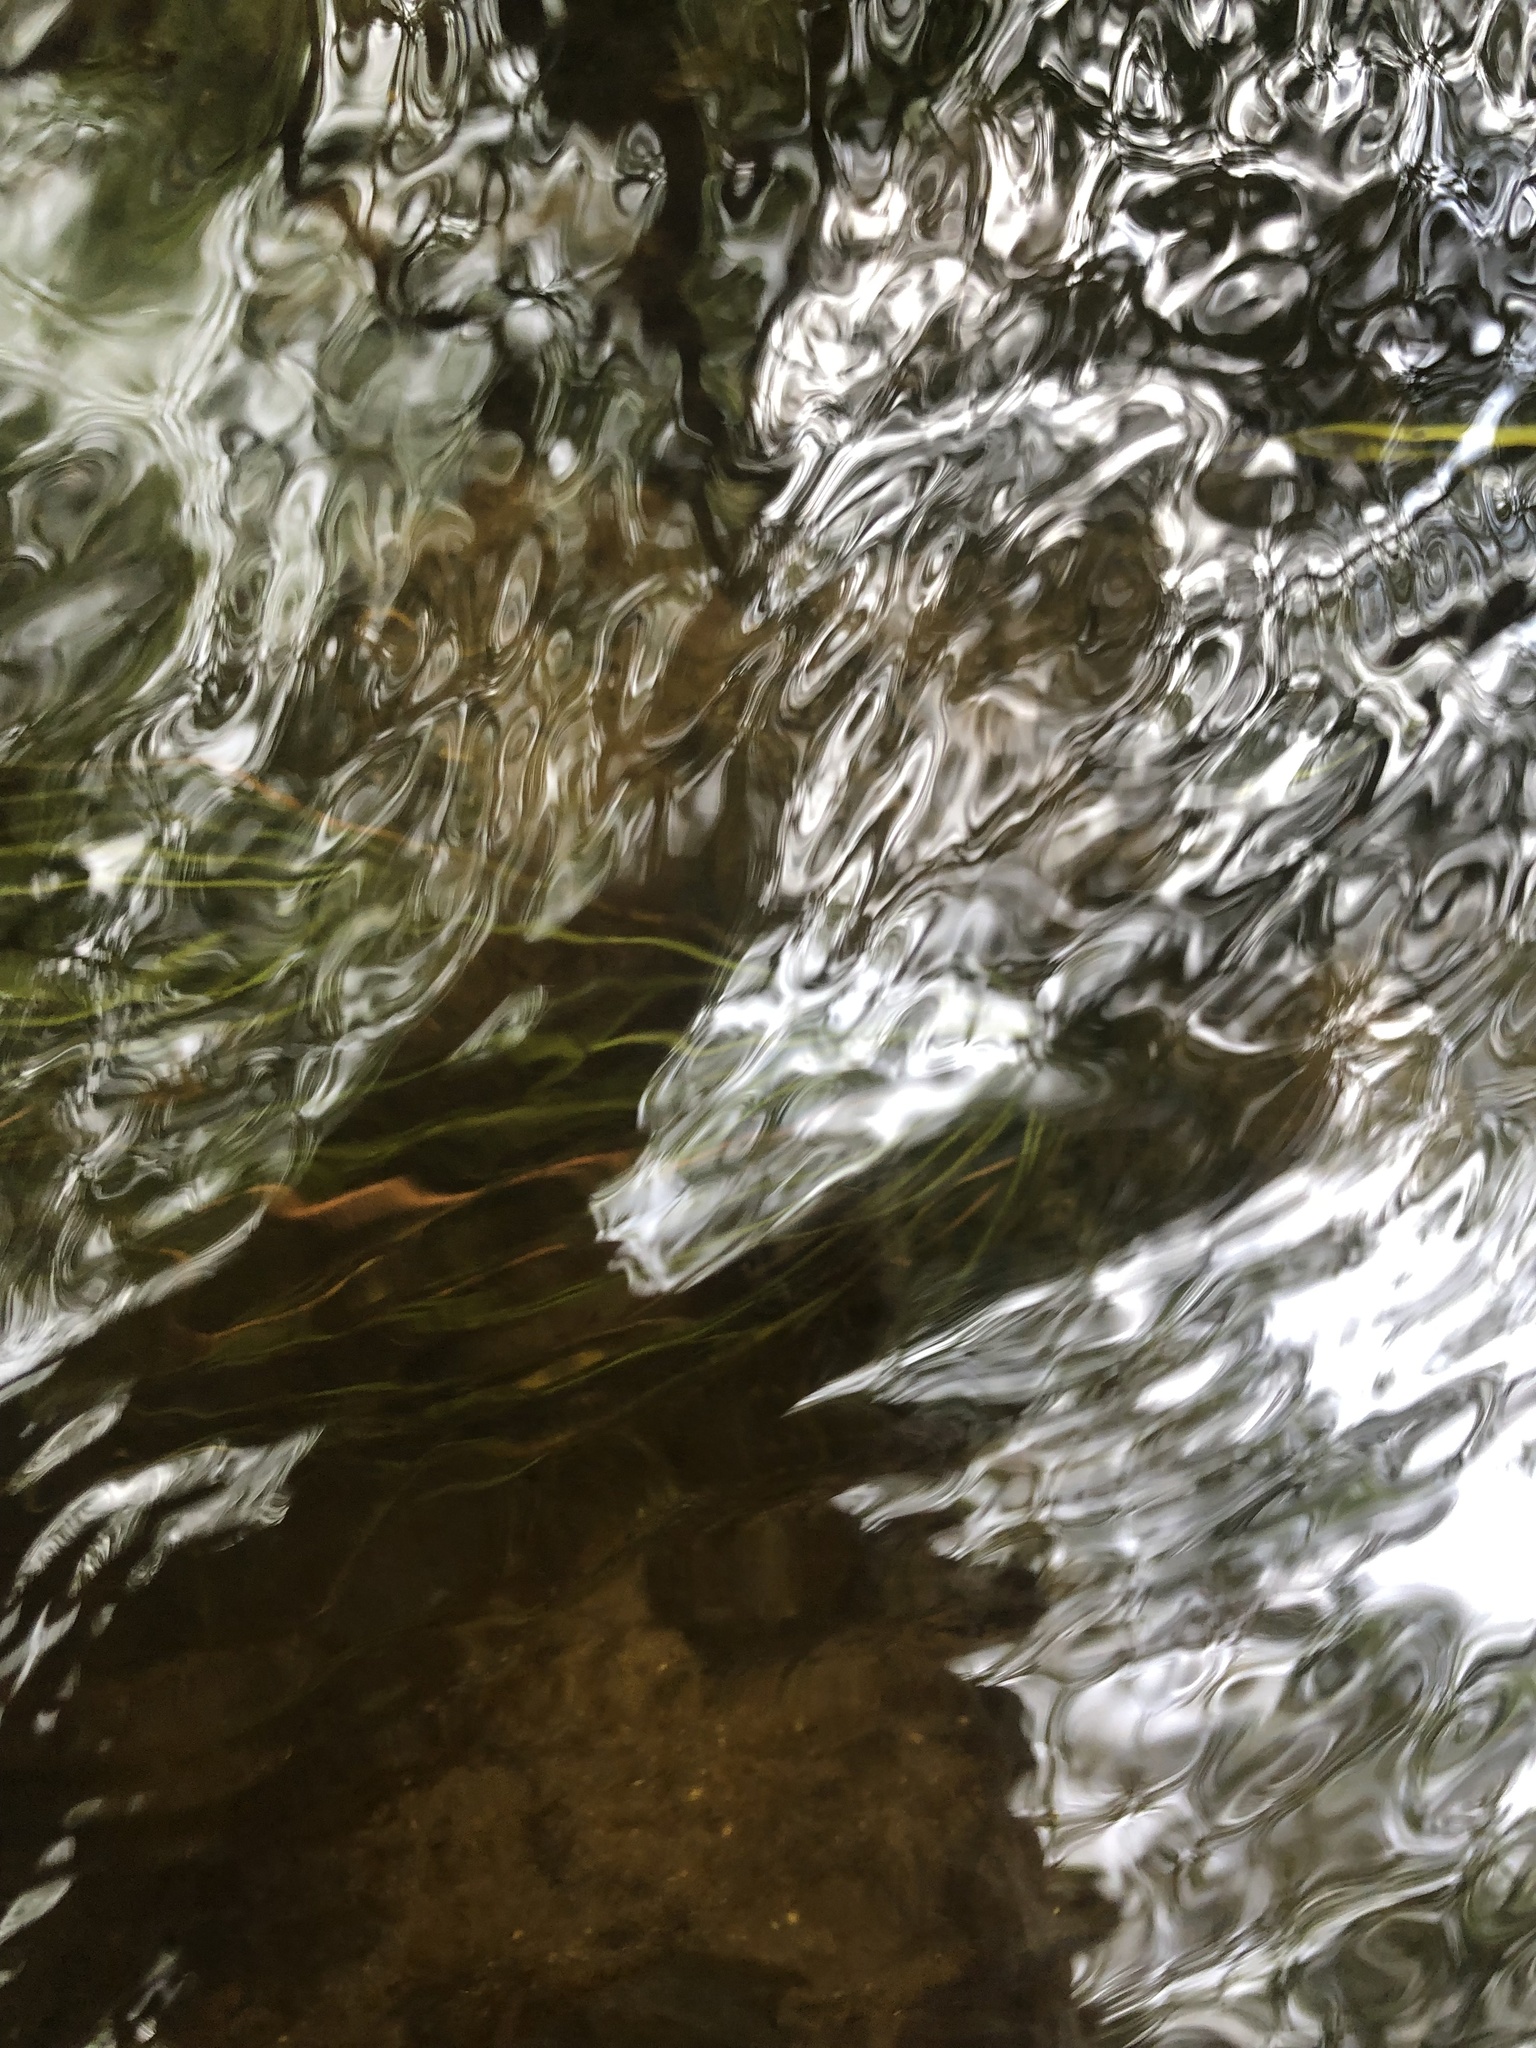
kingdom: Plantae
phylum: Tracheophyta
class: Lycopodiopsida
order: Isoetales
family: Isoetaceae
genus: Isoetes
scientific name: Isoetes hyemalis
